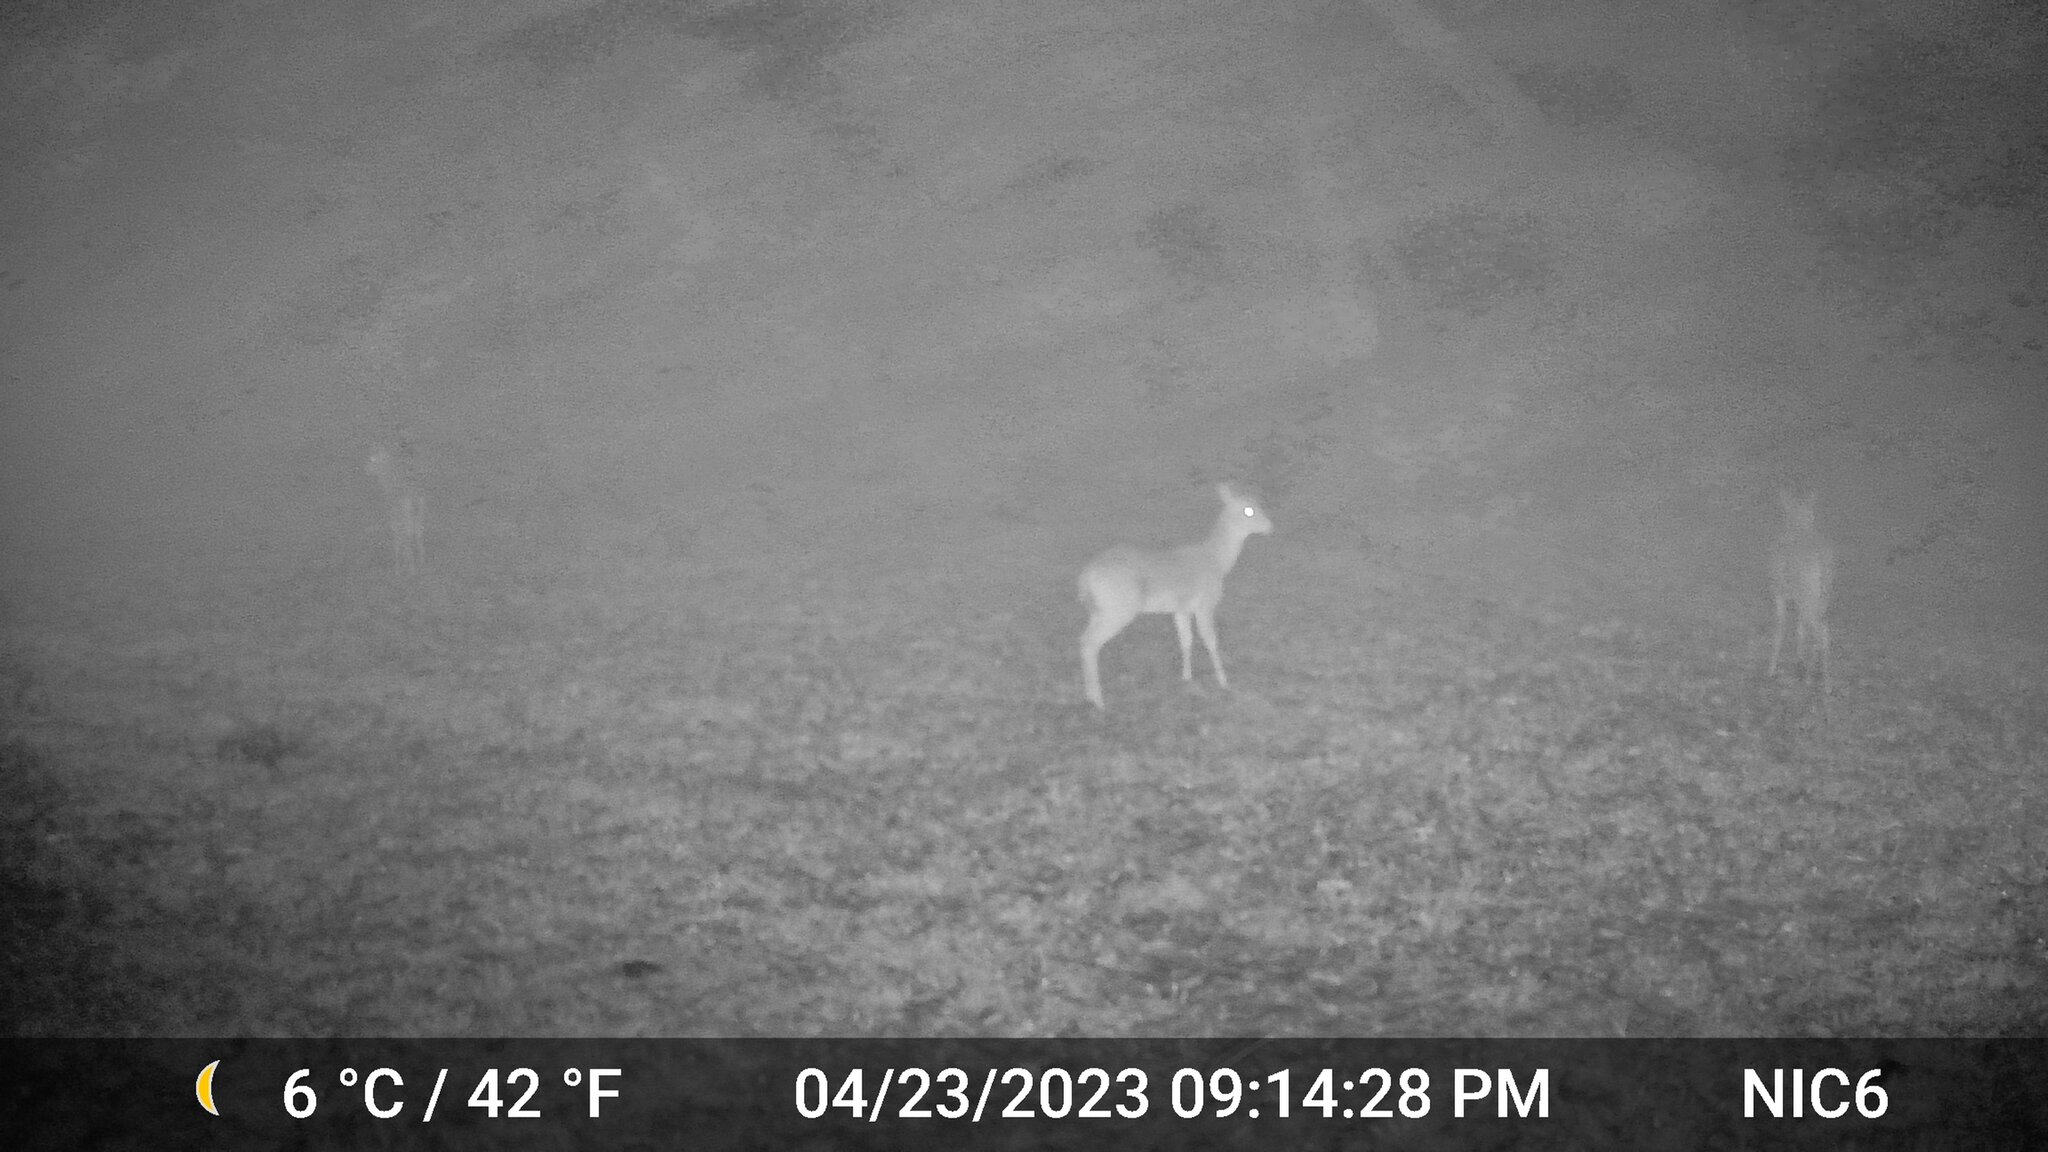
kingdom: Animalia
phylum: Chordata
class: Mammalia
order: Artiodactyla
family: Cervidae
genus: Odocoileus
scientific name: Odocoileus virginianus
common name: White-tailed deer
